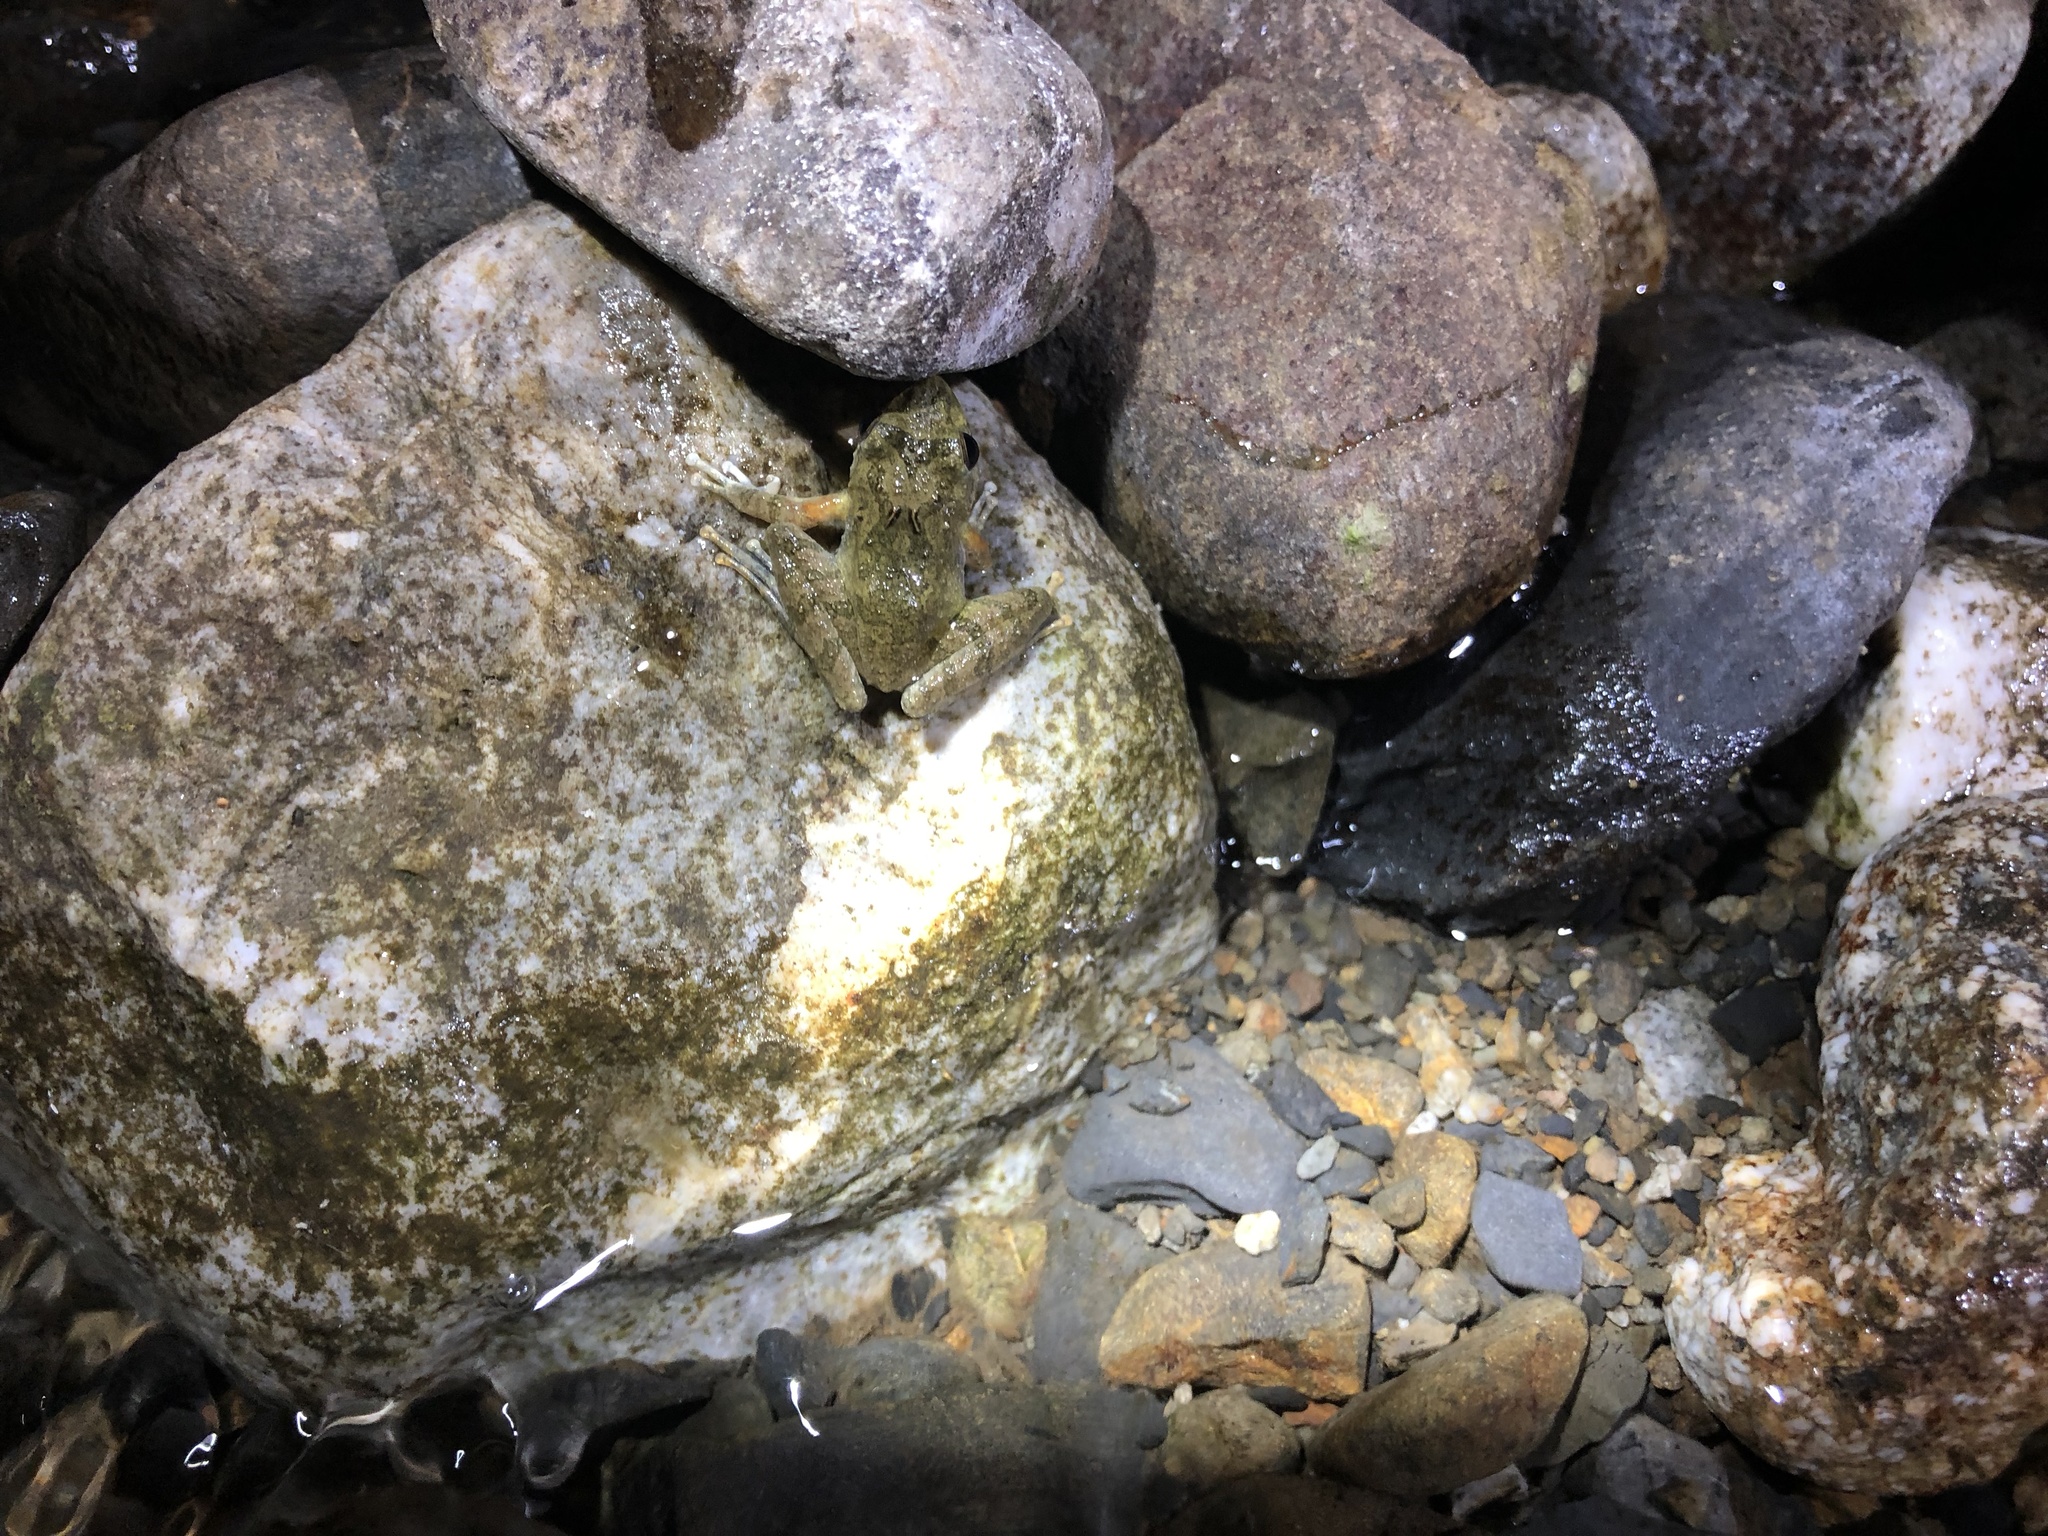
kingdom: Animalia
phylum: Chordata
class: Amphibia
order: Anura
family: Rhacophoridae
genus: Buergeria
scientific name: Buergeria choui
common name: Yaeyama kajika frog
